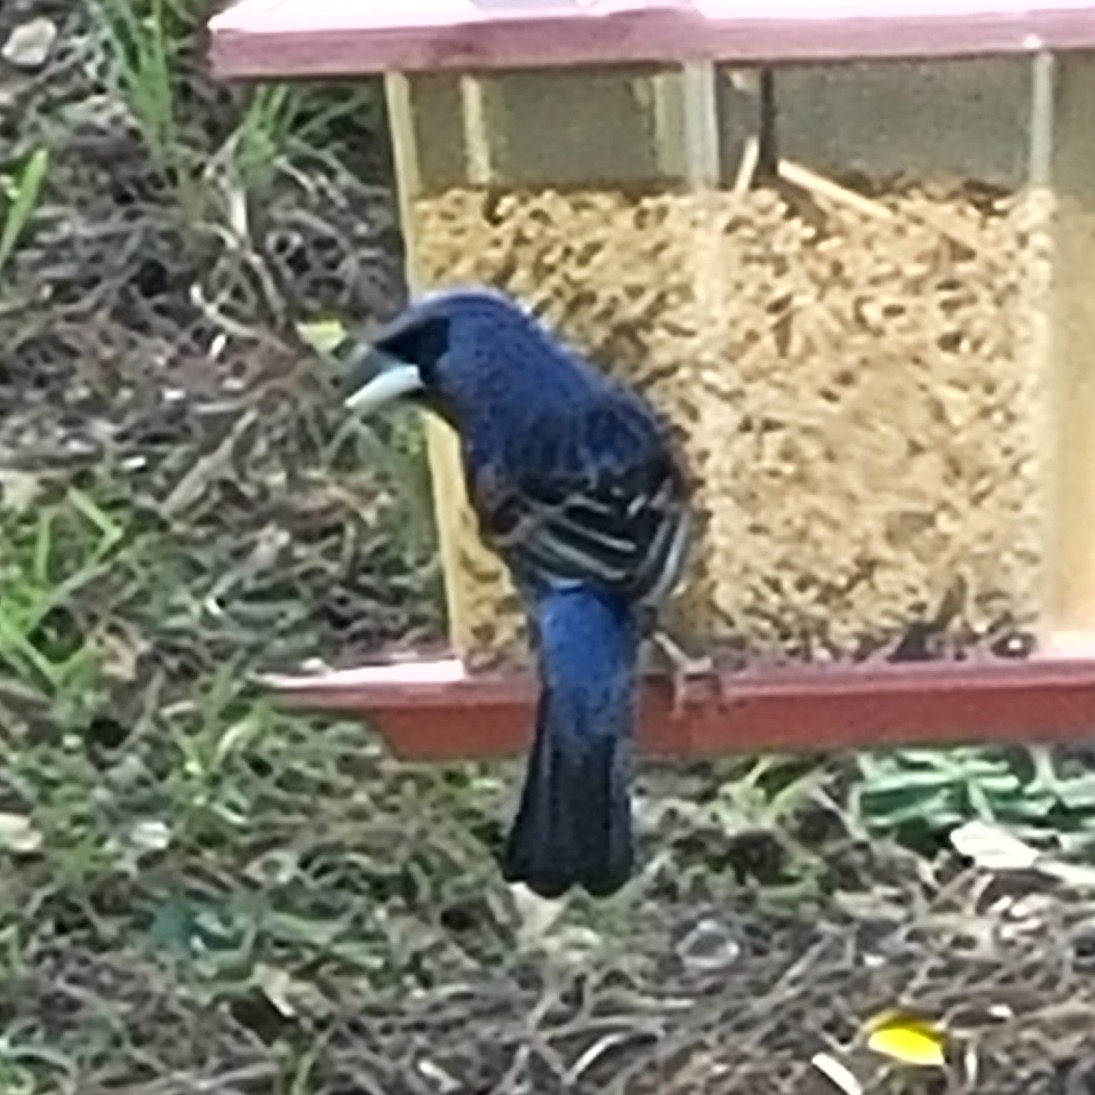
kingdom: Animalia
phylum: Chordata
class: Aves
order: Passeriformes
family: Cardinalidae
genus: Passerina
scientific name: Passerina caerulea
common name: Blue grosbeak
